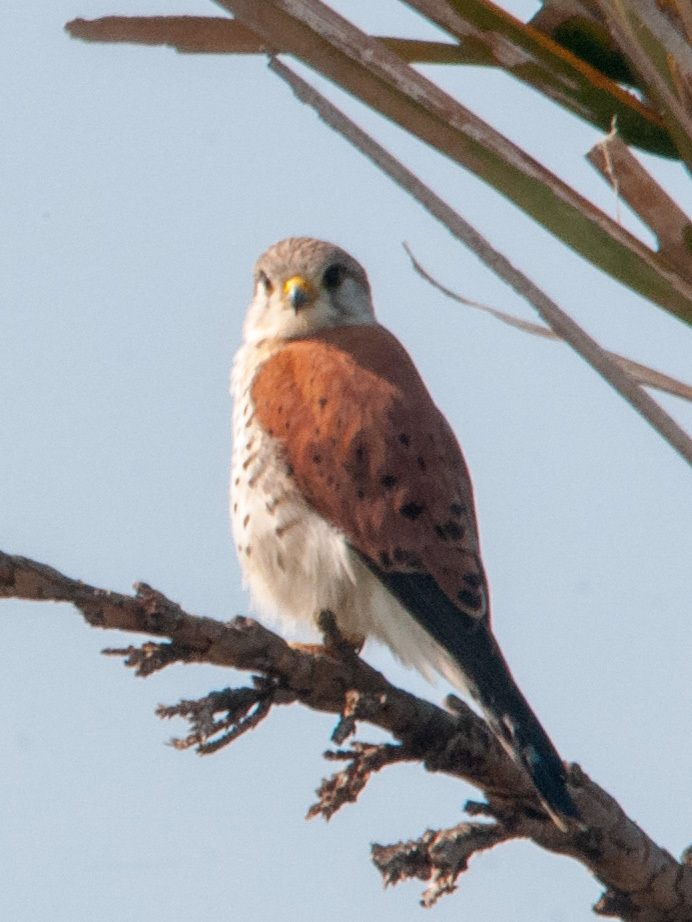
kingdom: Animalia
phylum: Chordata
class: Aves
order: Falconiformes
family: Falconidae
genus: Falco
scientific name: Falco newtoni
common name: Malagasy kestrel
